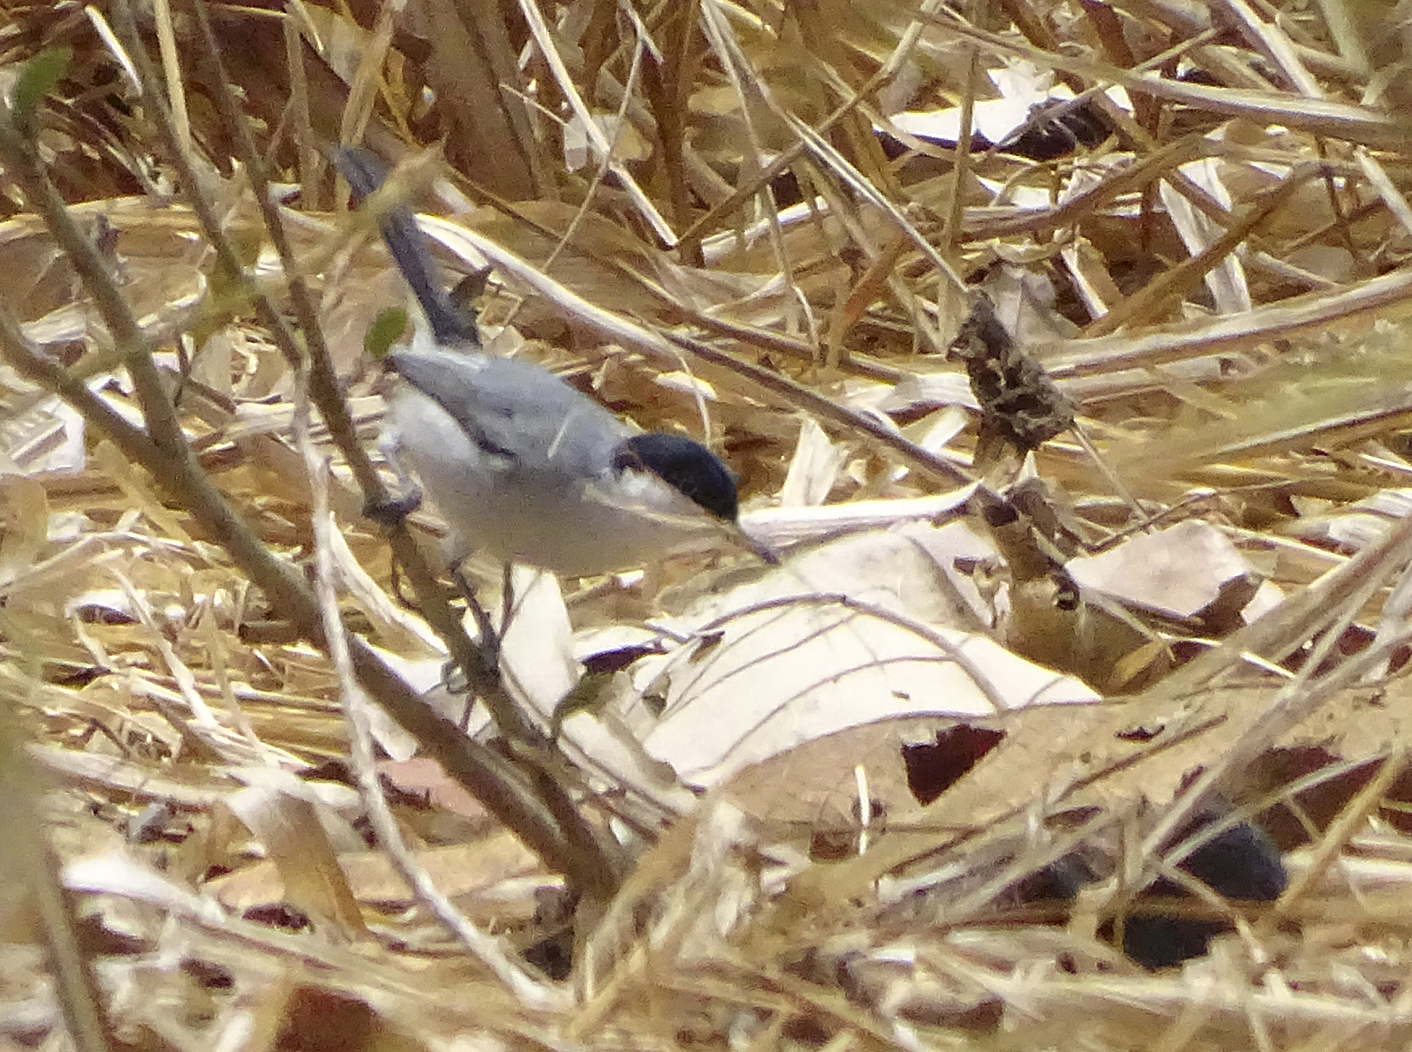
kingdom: Animalia
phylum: Chordata
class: Aves
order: Passeriformes
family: Polioptilidae
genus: Polioptila
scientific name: Polioptila albiloris
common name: White-lored gnatcatcher
